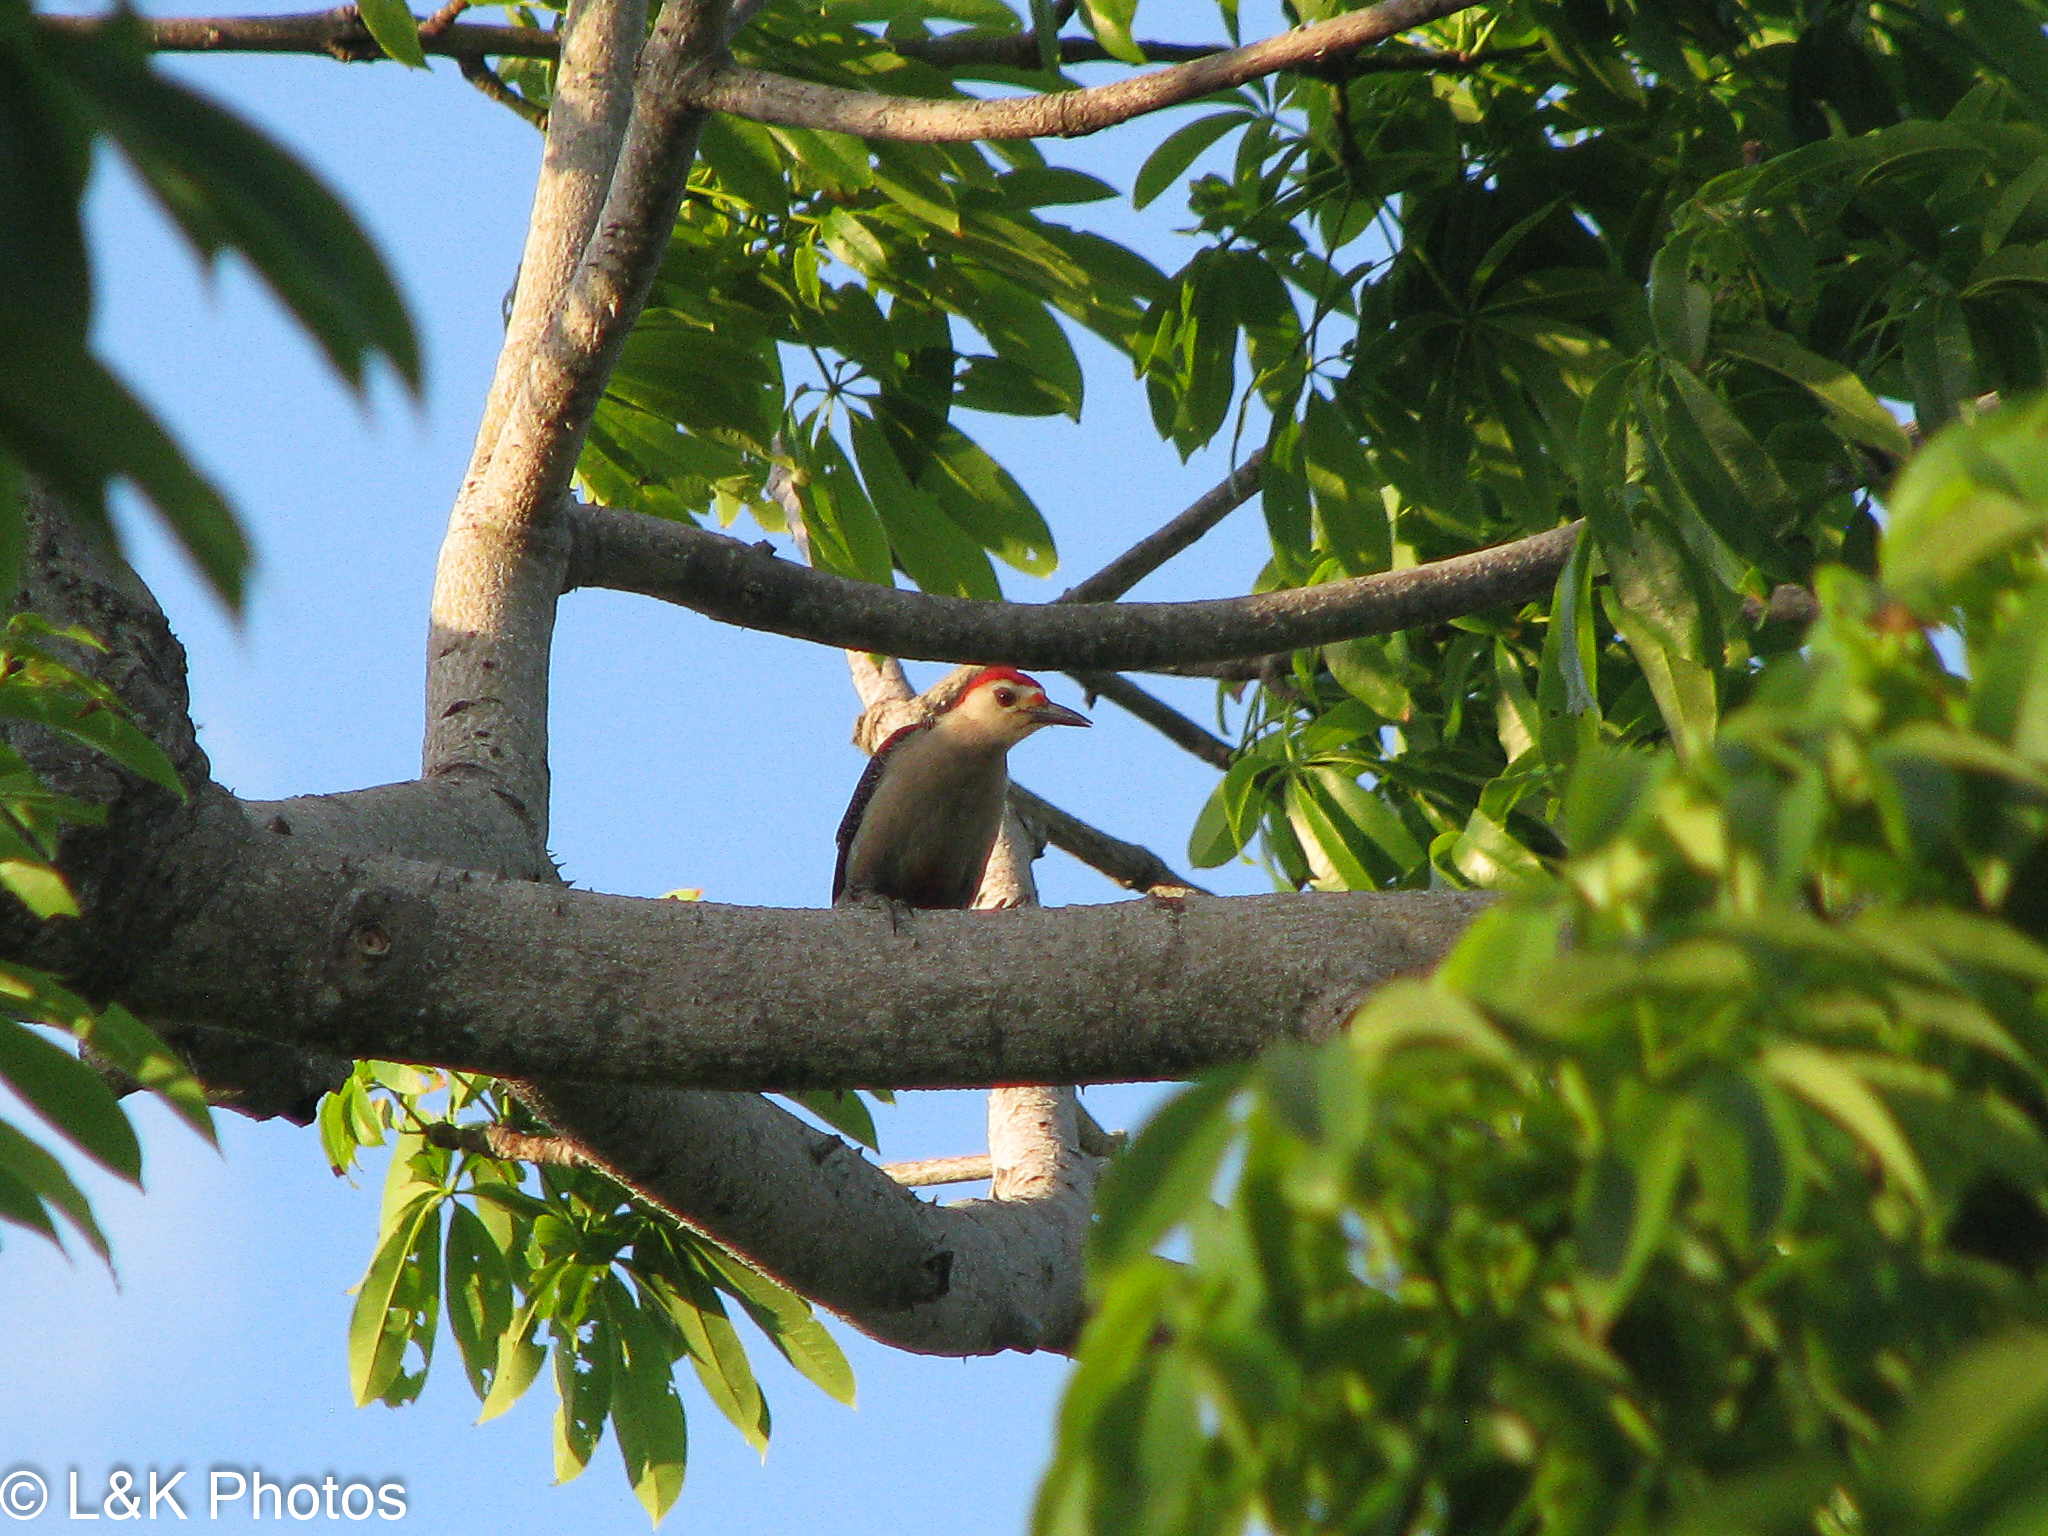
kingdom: Animalia
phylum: Chordata
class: Aves
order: Piciformes
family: Picidae
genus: Melanerpes
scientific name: Melanerpes aurifrons
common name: Golden-fronted woodpecker
